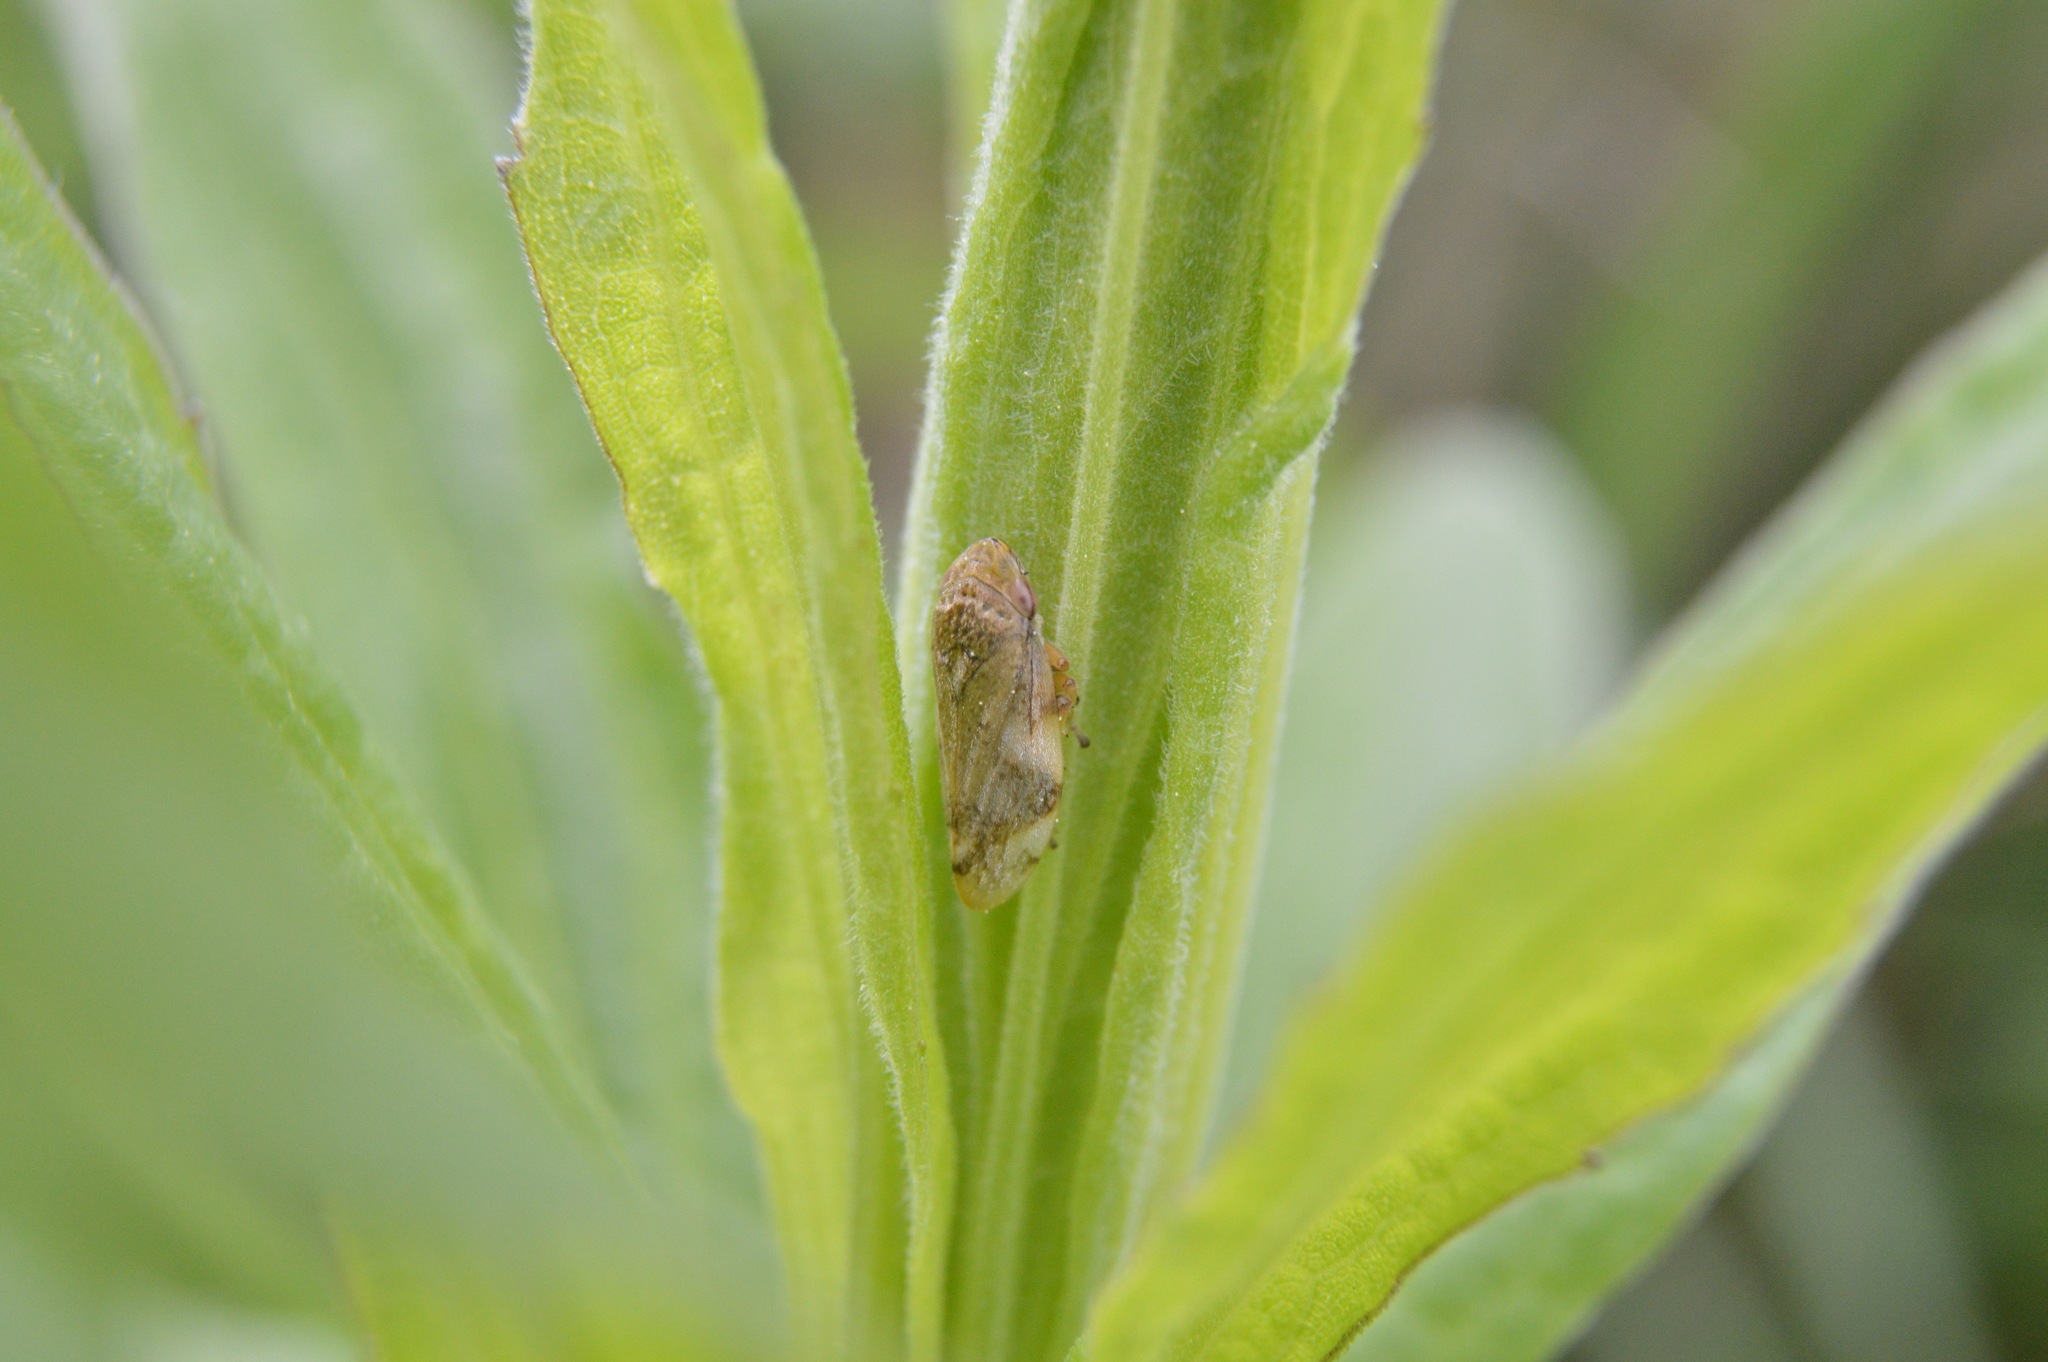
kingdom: Animalia
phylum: Arthropoda
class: Insecta
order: Hemiptera
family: Aphrophoridae
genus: Philaenus
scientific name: Philaenus spumarius
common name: Meadow spittlebug
